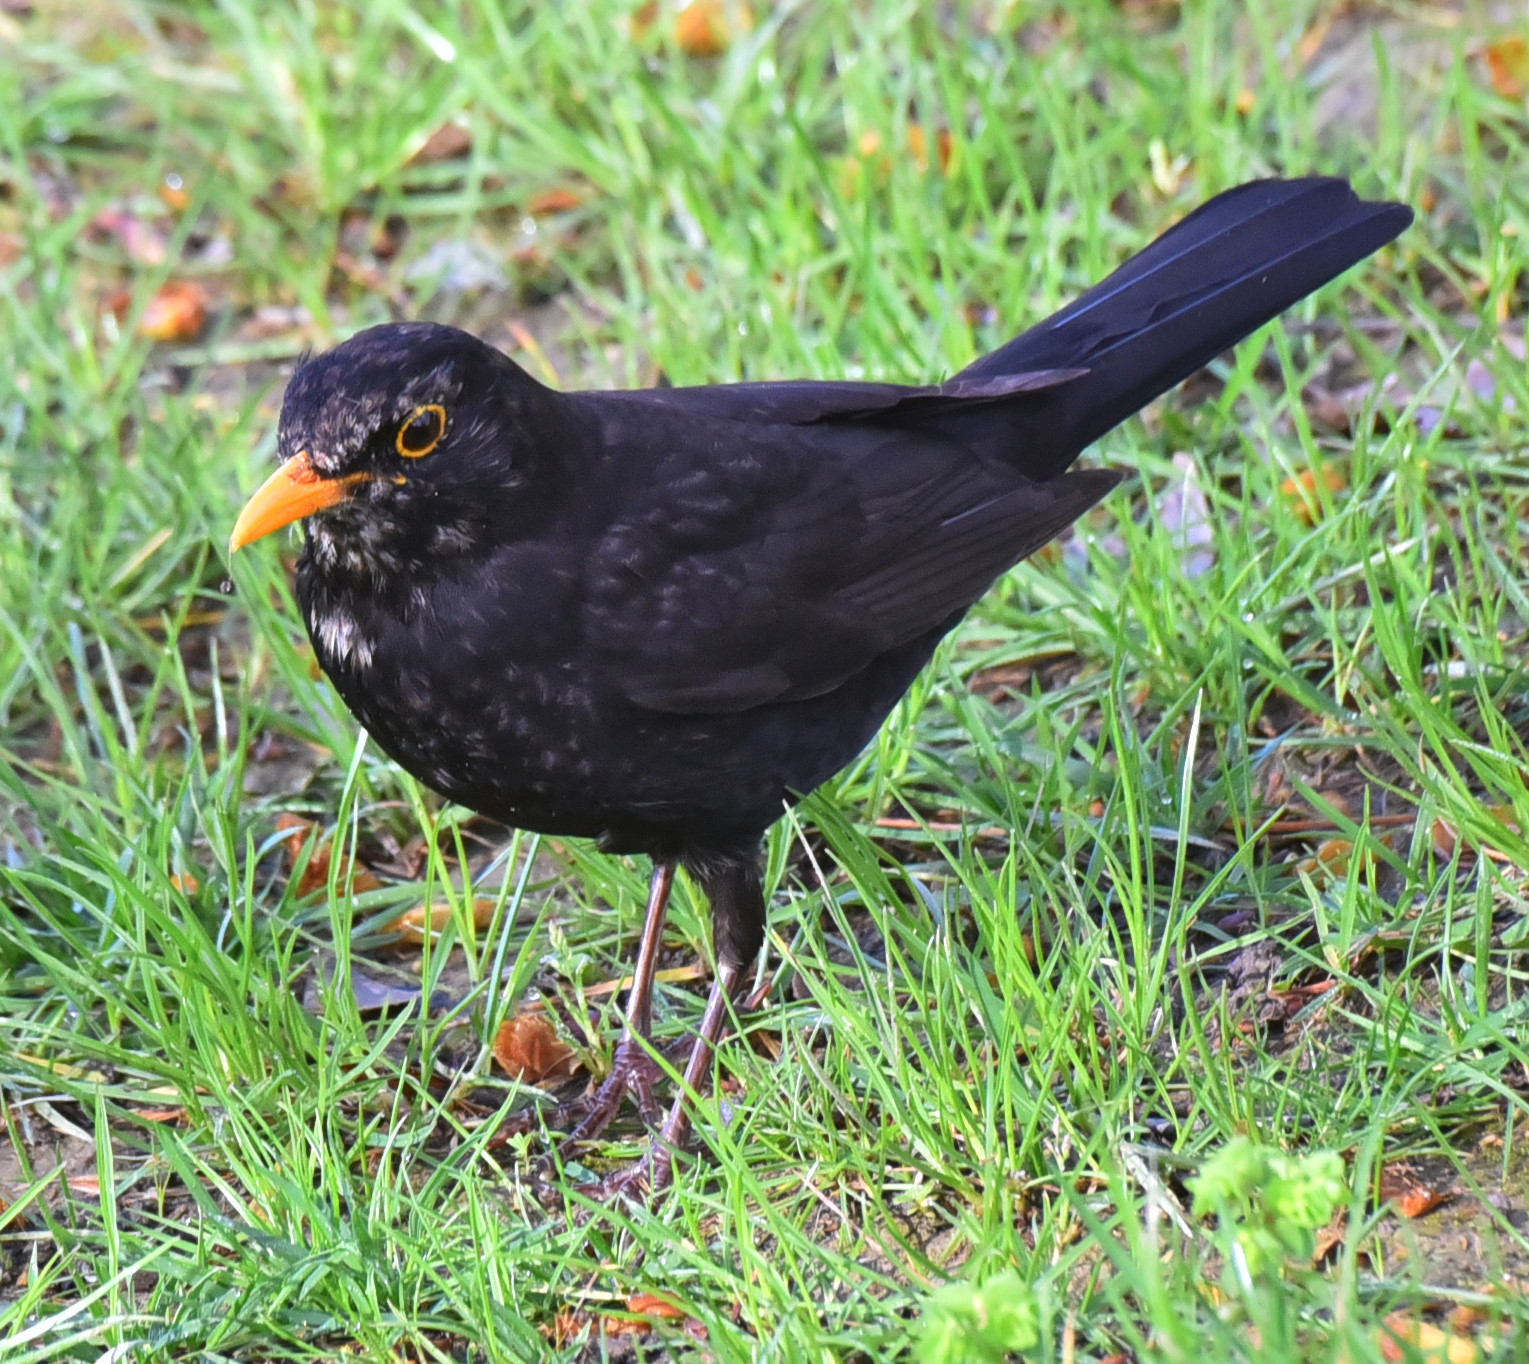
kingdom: Animalia
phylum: Chordata
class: Aves
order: Passeriformes
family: Turdidae
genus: Turdus
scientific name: Turdus merula
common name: Common blackbird
